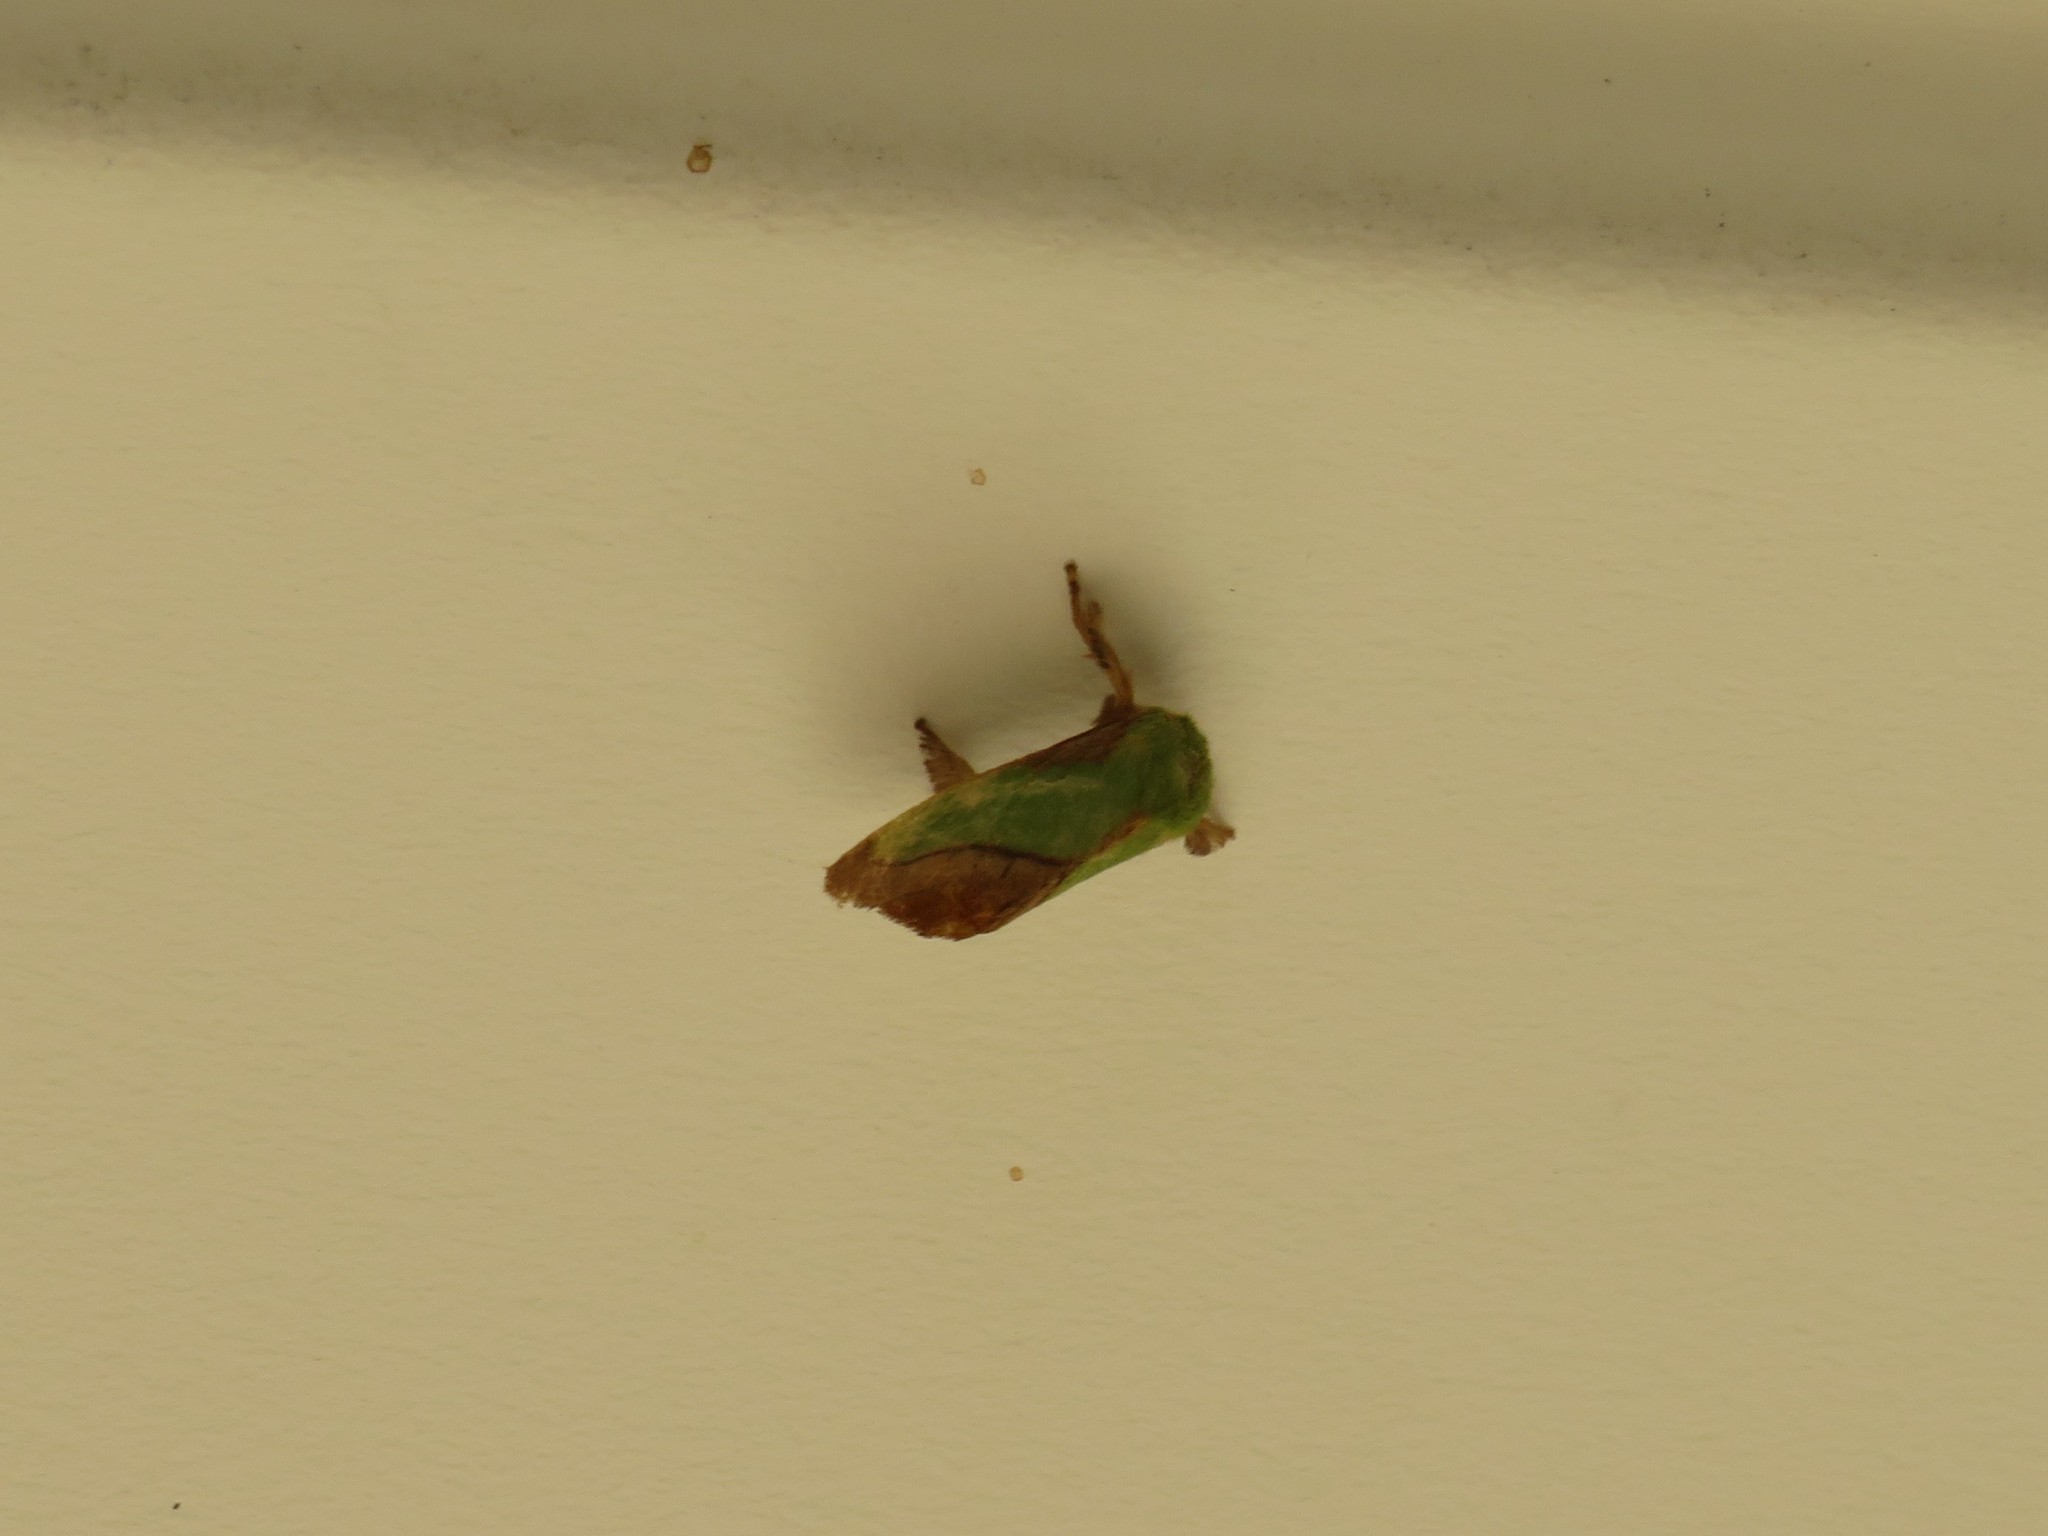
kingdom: Animalia
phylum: Arthropoda
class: Insecta
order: Lepidoptera
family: Limacodidae
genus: Parasa
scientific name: Parasa chloris
